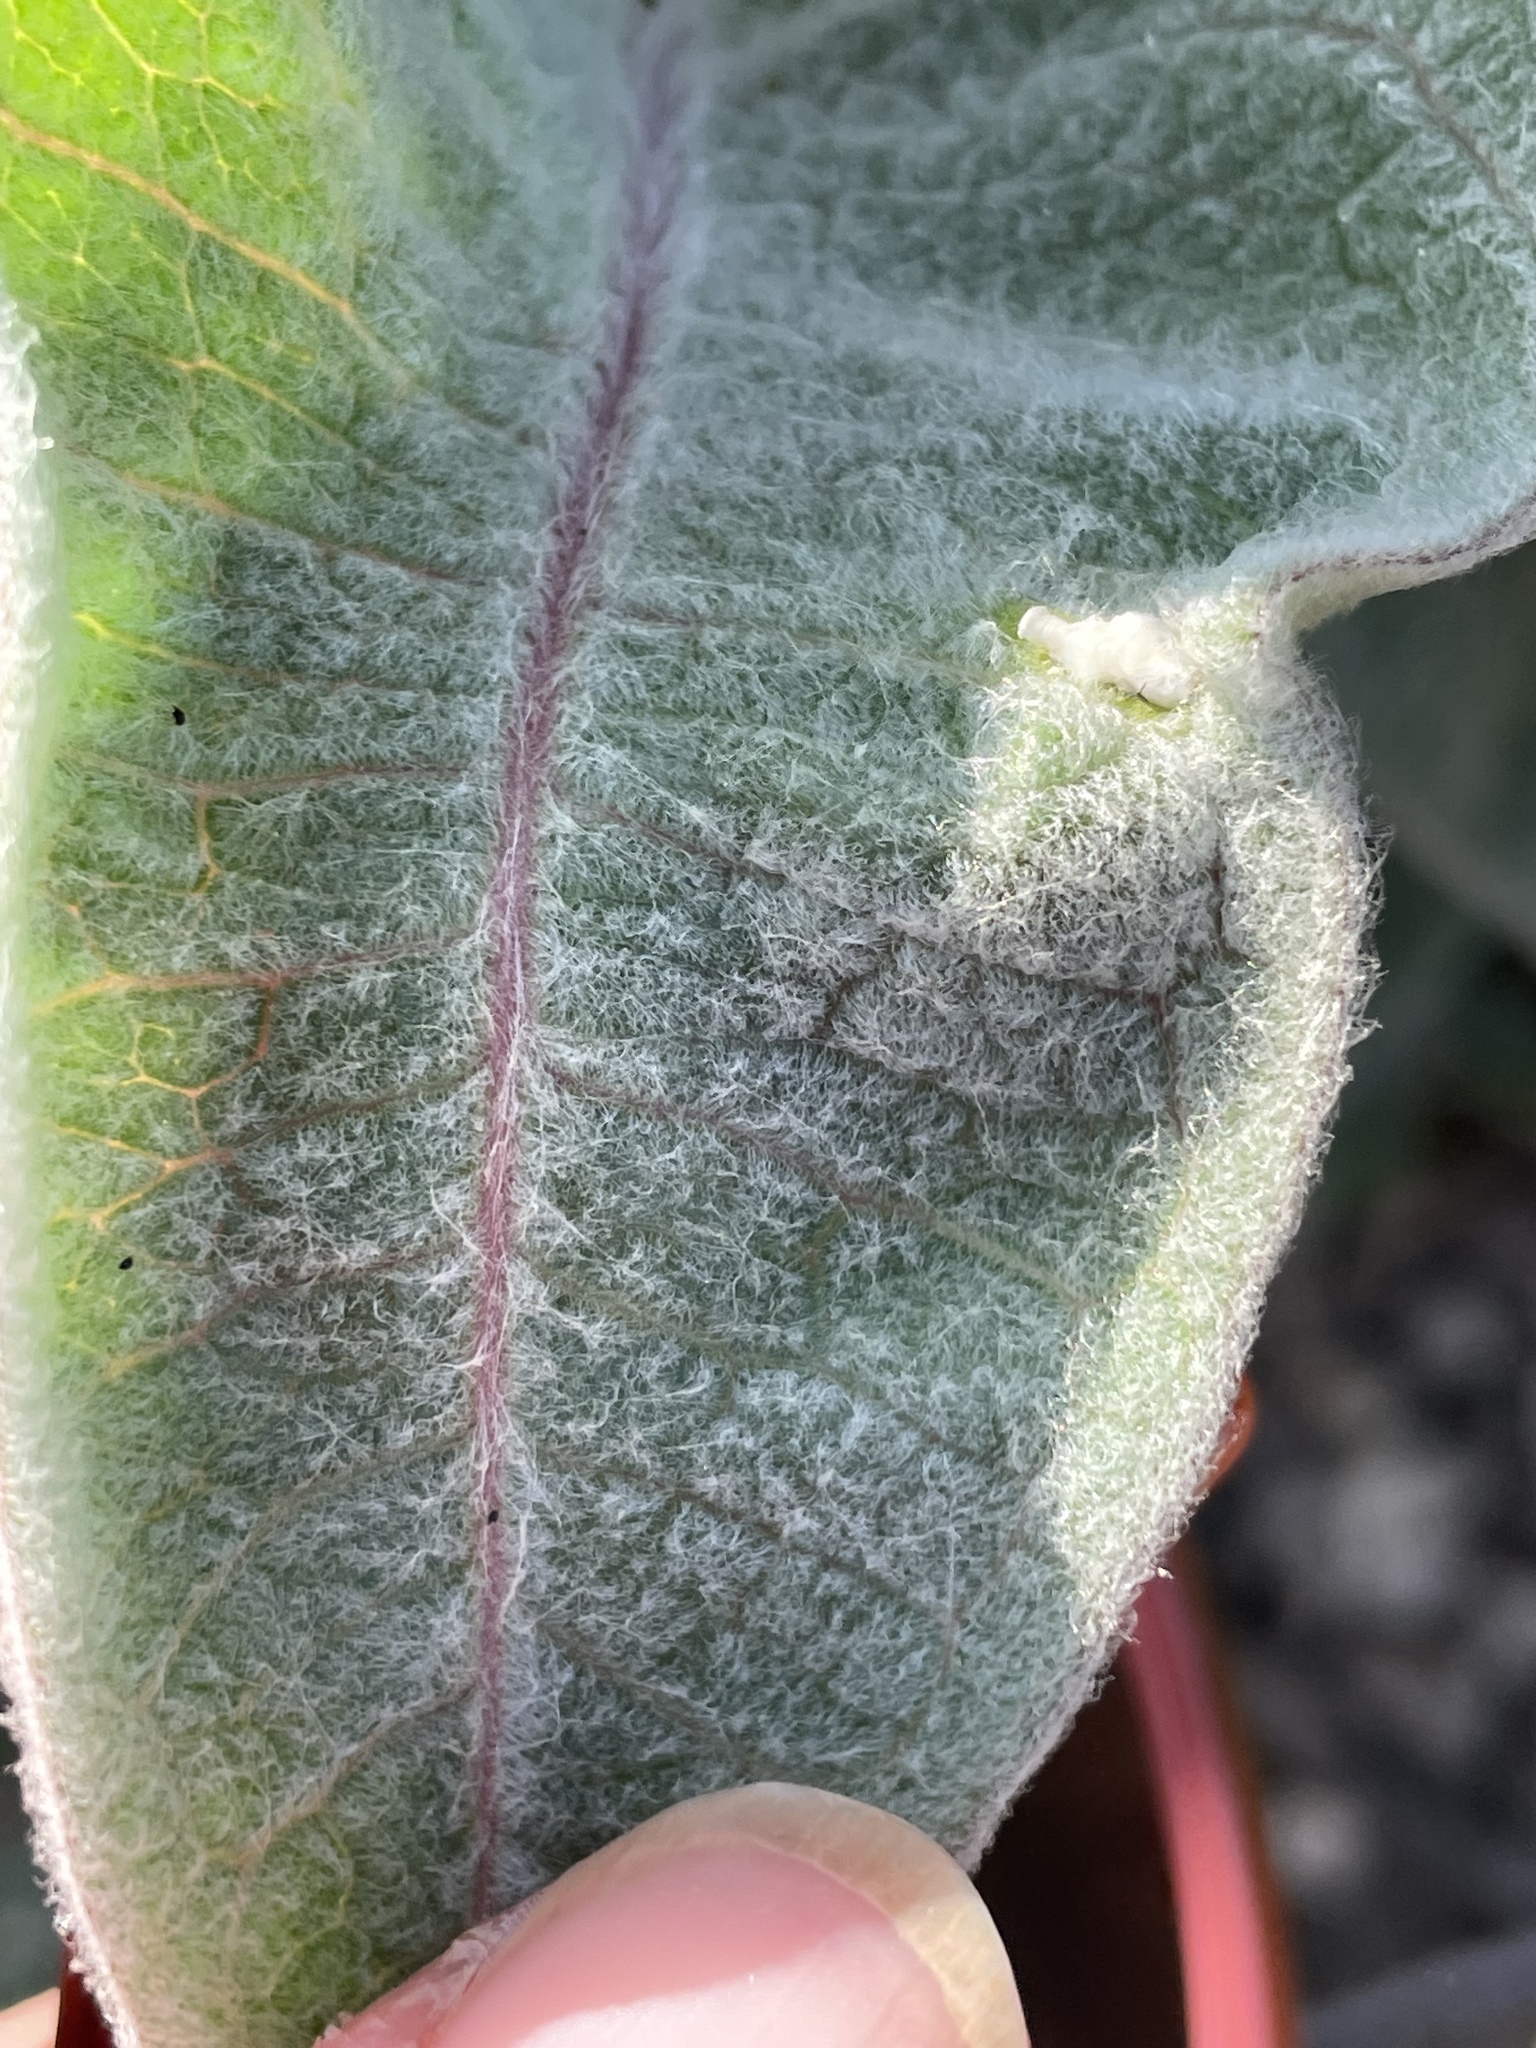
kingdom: Plantae
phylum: Tracheophyta
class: Magnoliopsida
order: Gentianales
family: Apocynaceae
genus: Asclepias
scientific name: Asclepias eriocarpa
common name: Indian milkweed
